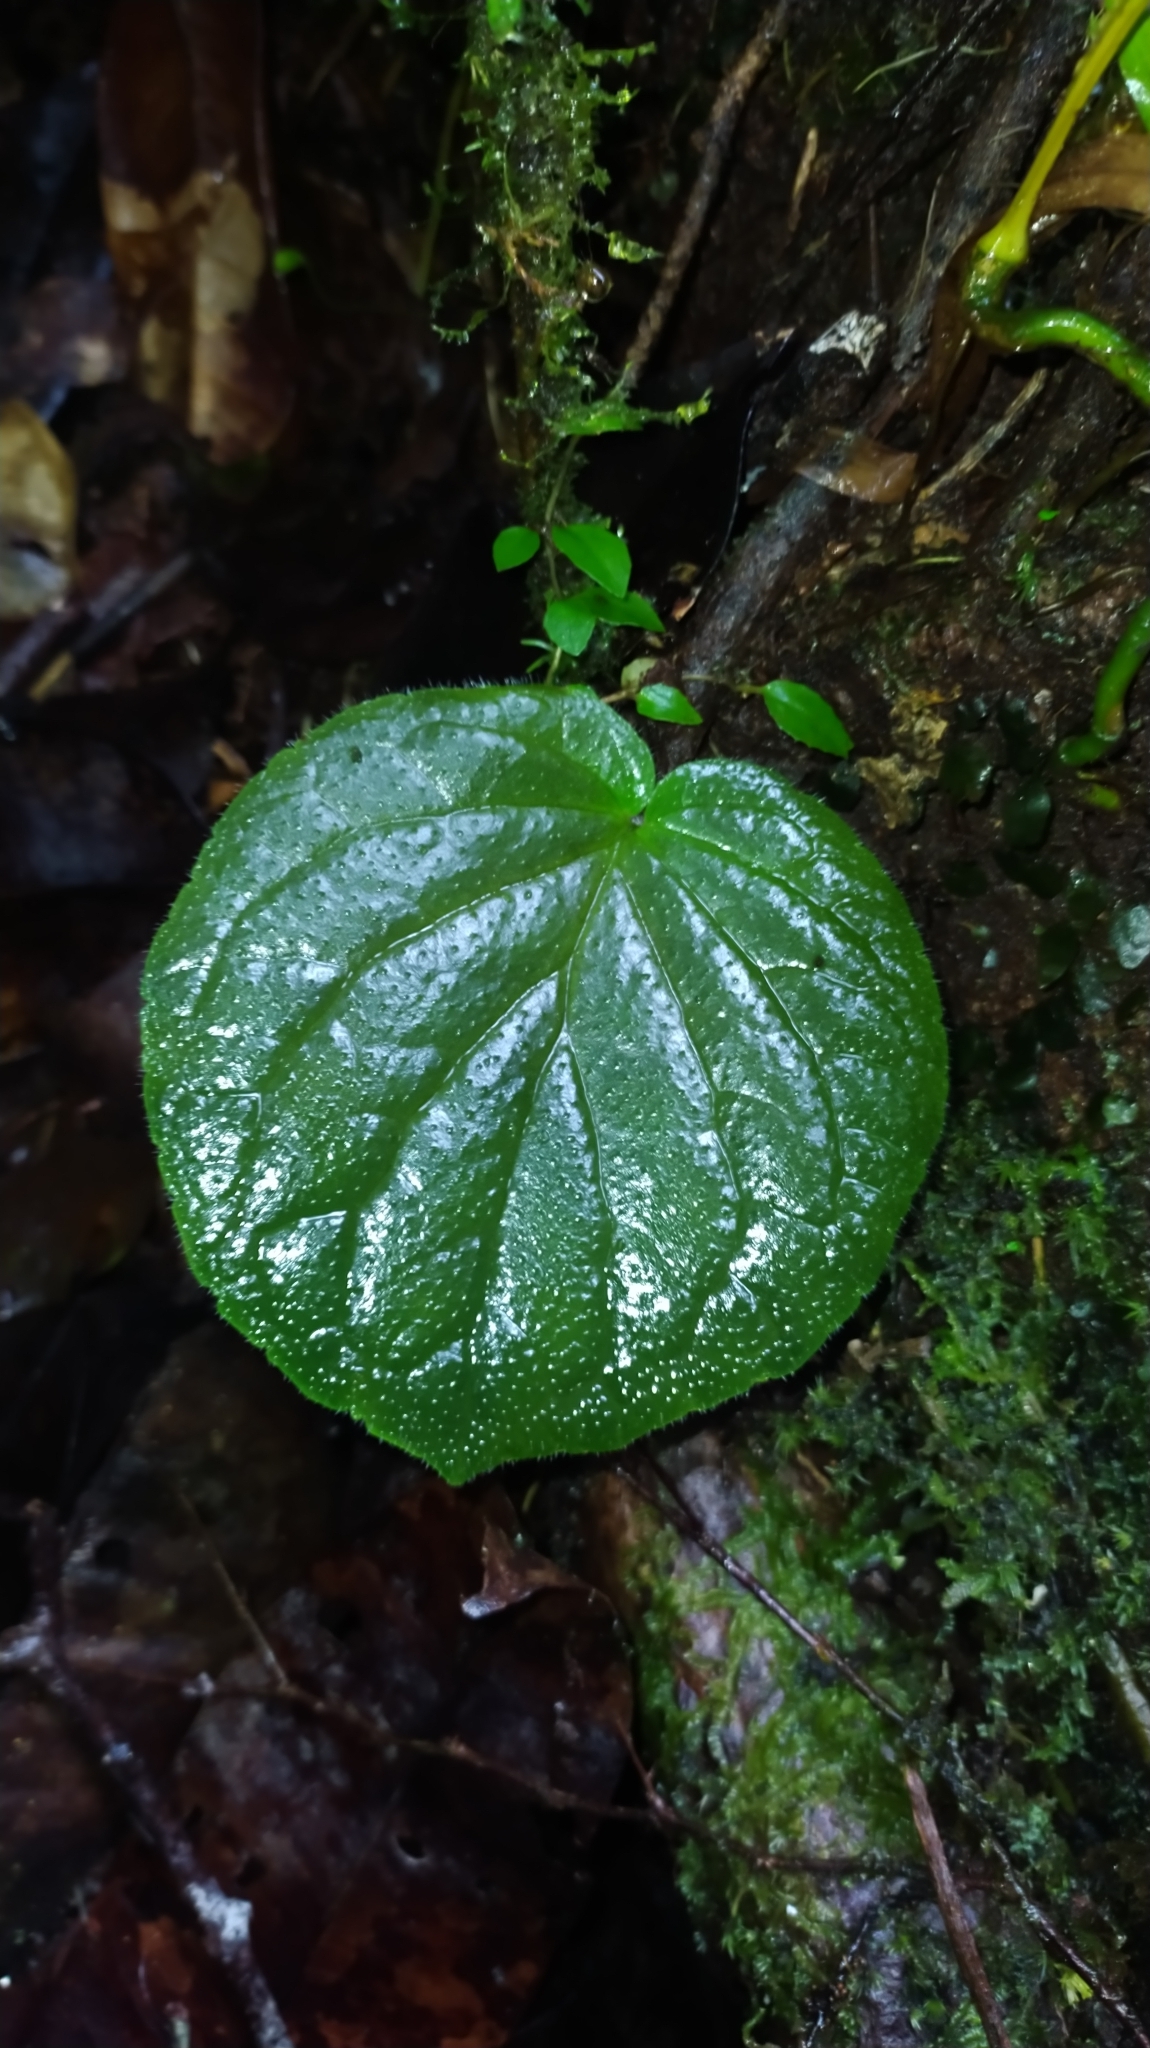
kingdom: Plantae
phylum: Tracheophyta
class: Magnoliopsida
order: Lamiales
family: Gesneriaceae
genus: Lembocarpus
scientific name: Lembocarpus amoenus
